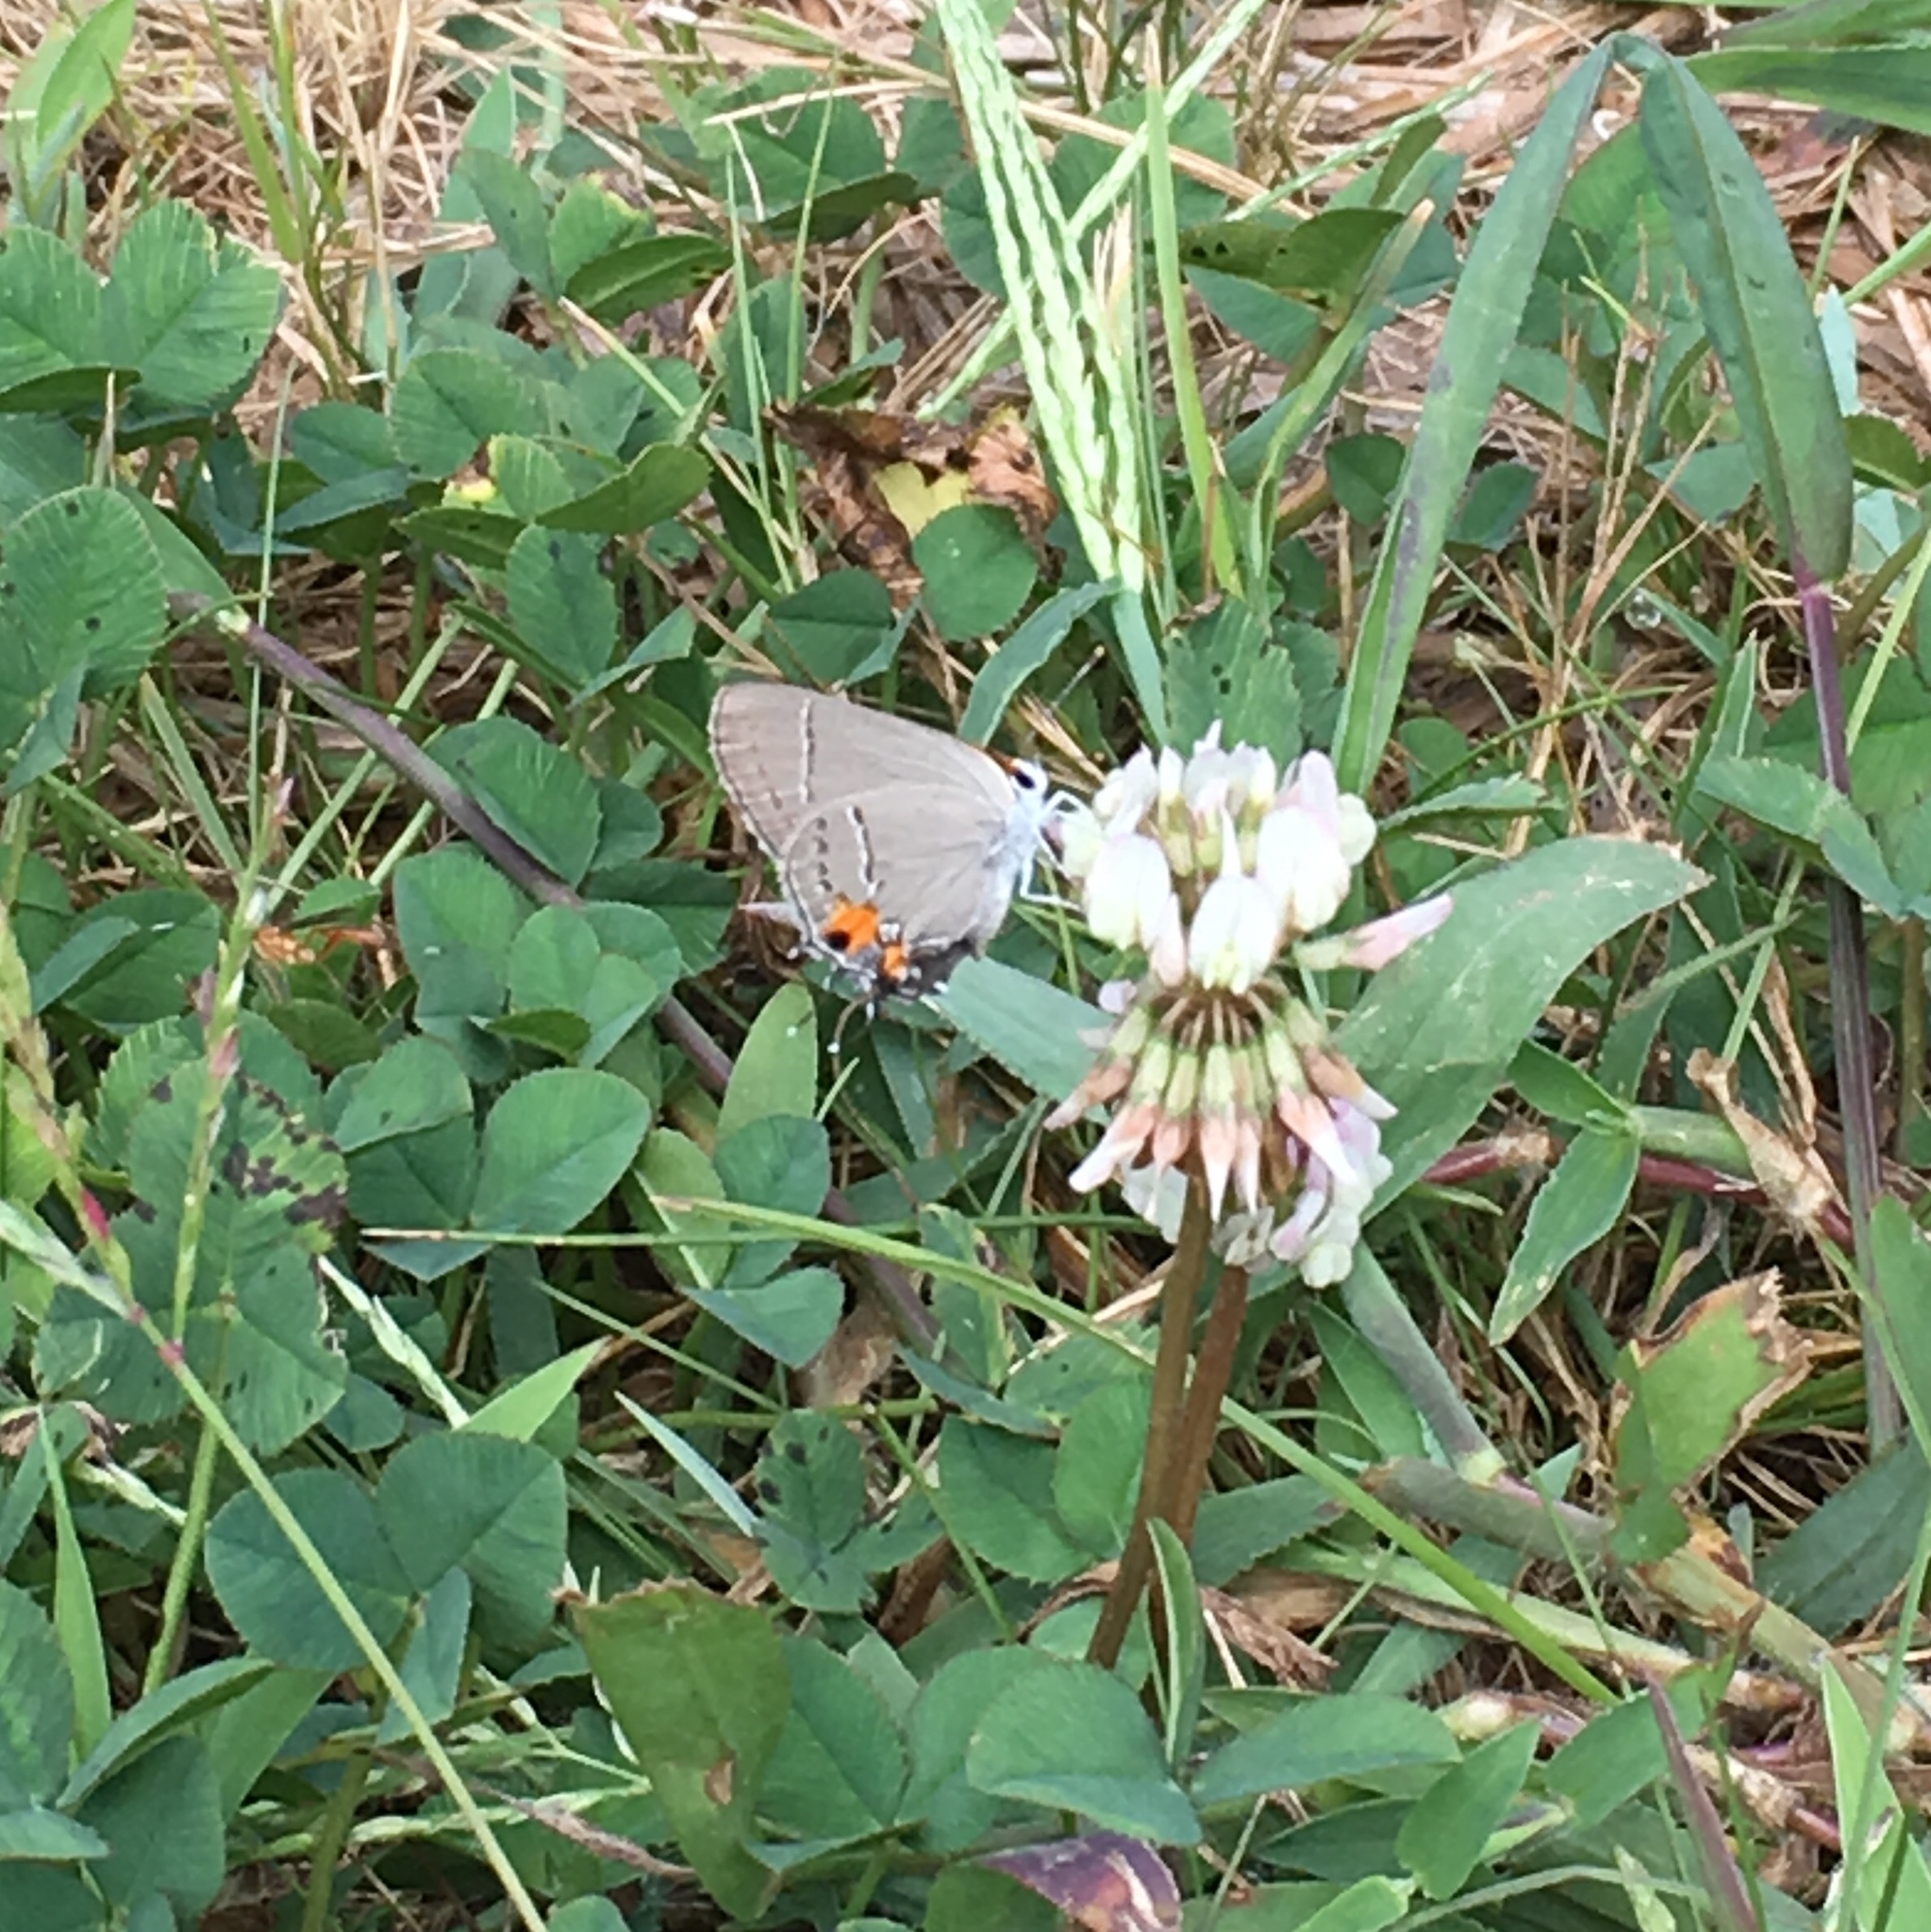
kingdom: Animalia
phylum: Arthropoda
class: Insecta
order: Lepidoptera
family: Lycaenidae
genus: Strymon
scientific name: Strymon melinus
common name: Gray hairstreak
